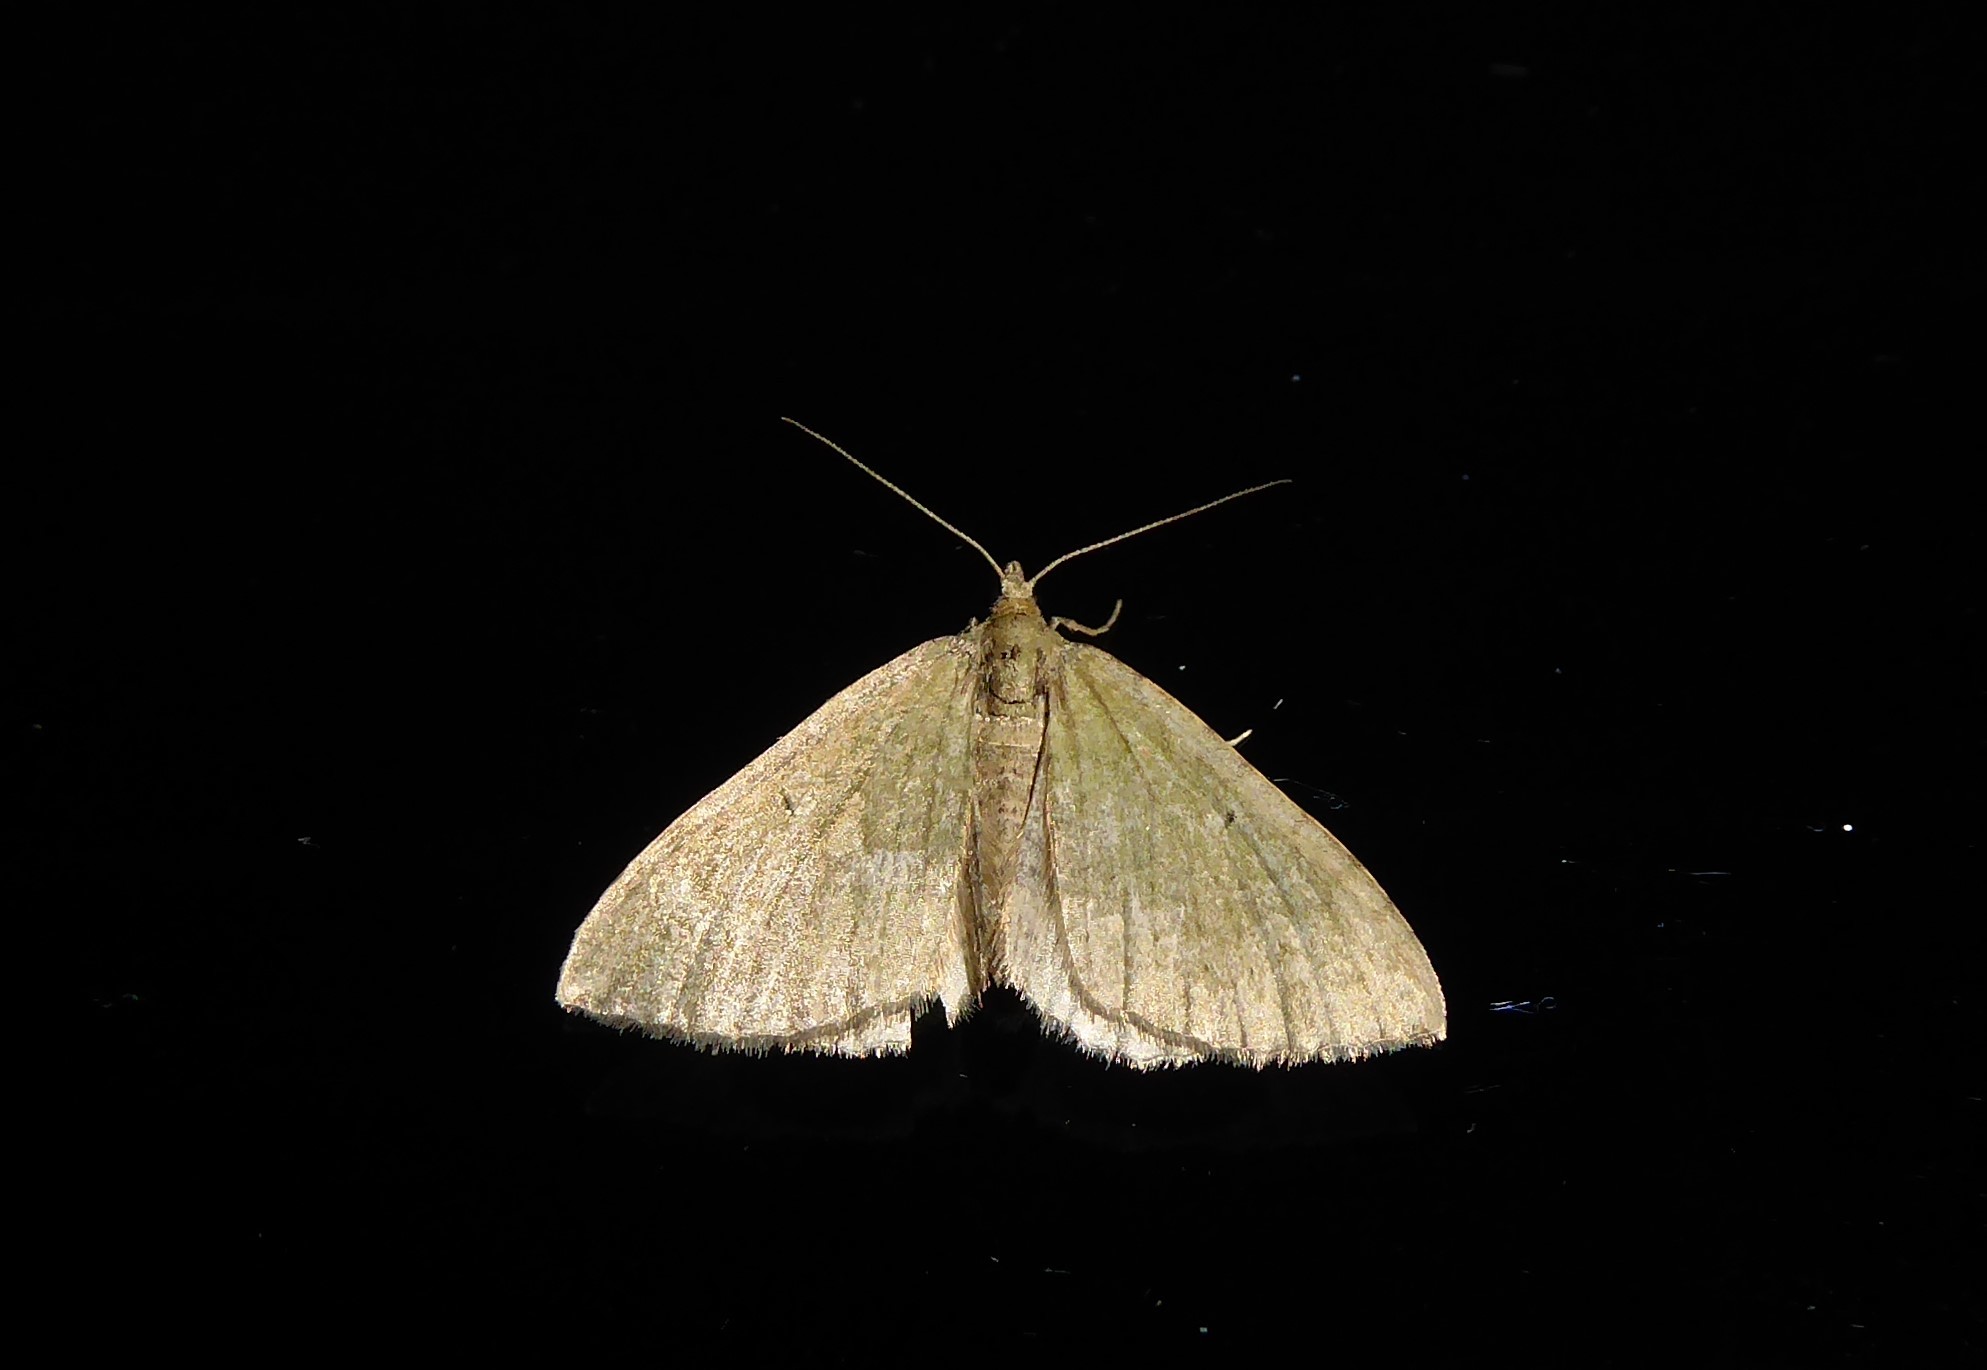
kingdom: Animalia
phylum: Arthropoda
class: Insecta
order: Lepidoptera
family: Geometridae
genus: Epyaxa
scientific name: Epyaxa rosearia
